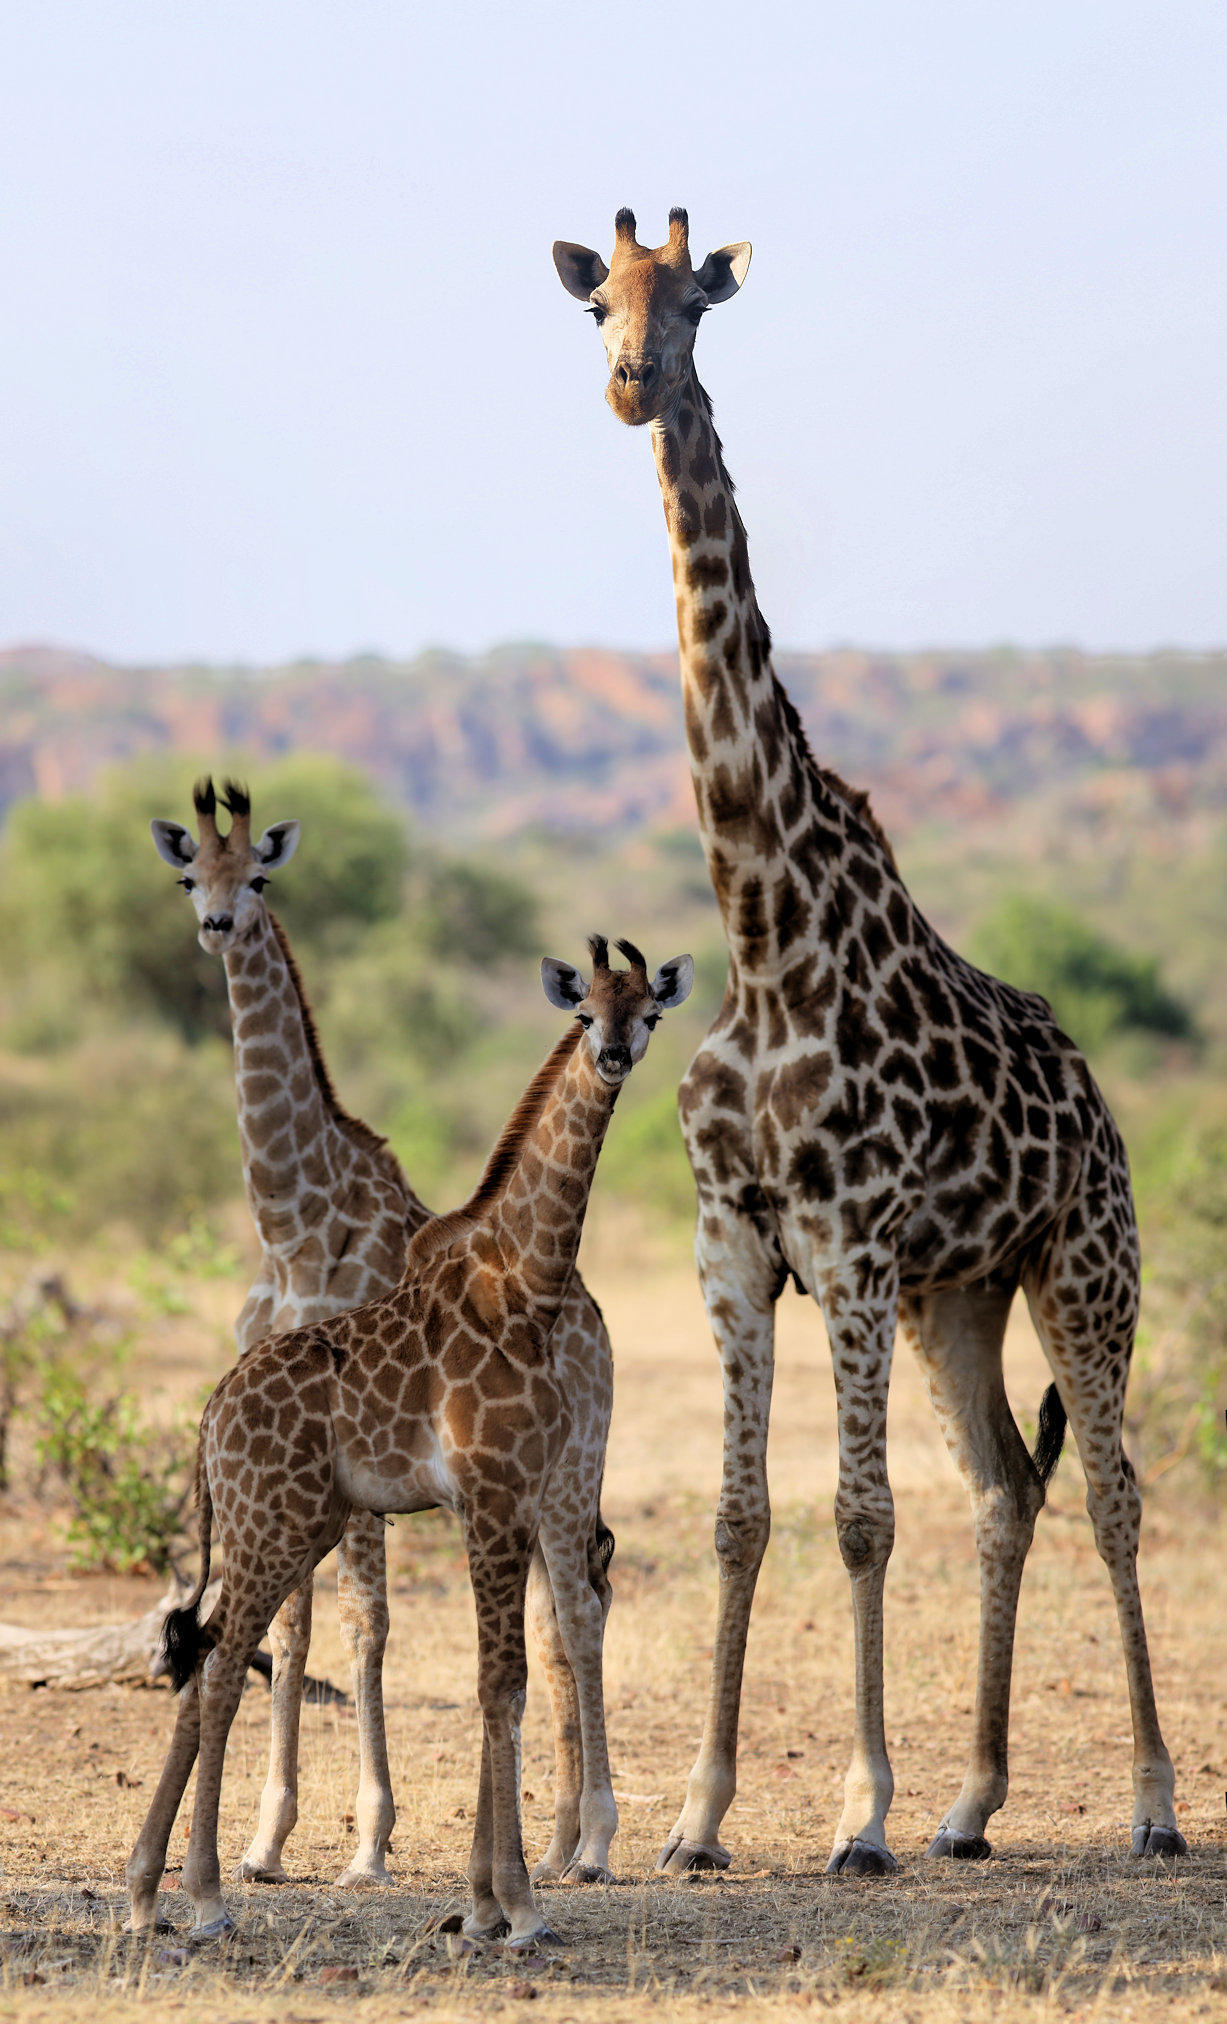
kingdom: Animalia
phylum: Chordata
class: Mammalia
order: Artiodactyla
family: Giraffidae
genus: Giraffa
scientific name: Giraffa giraffa
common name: Southern giraffe
